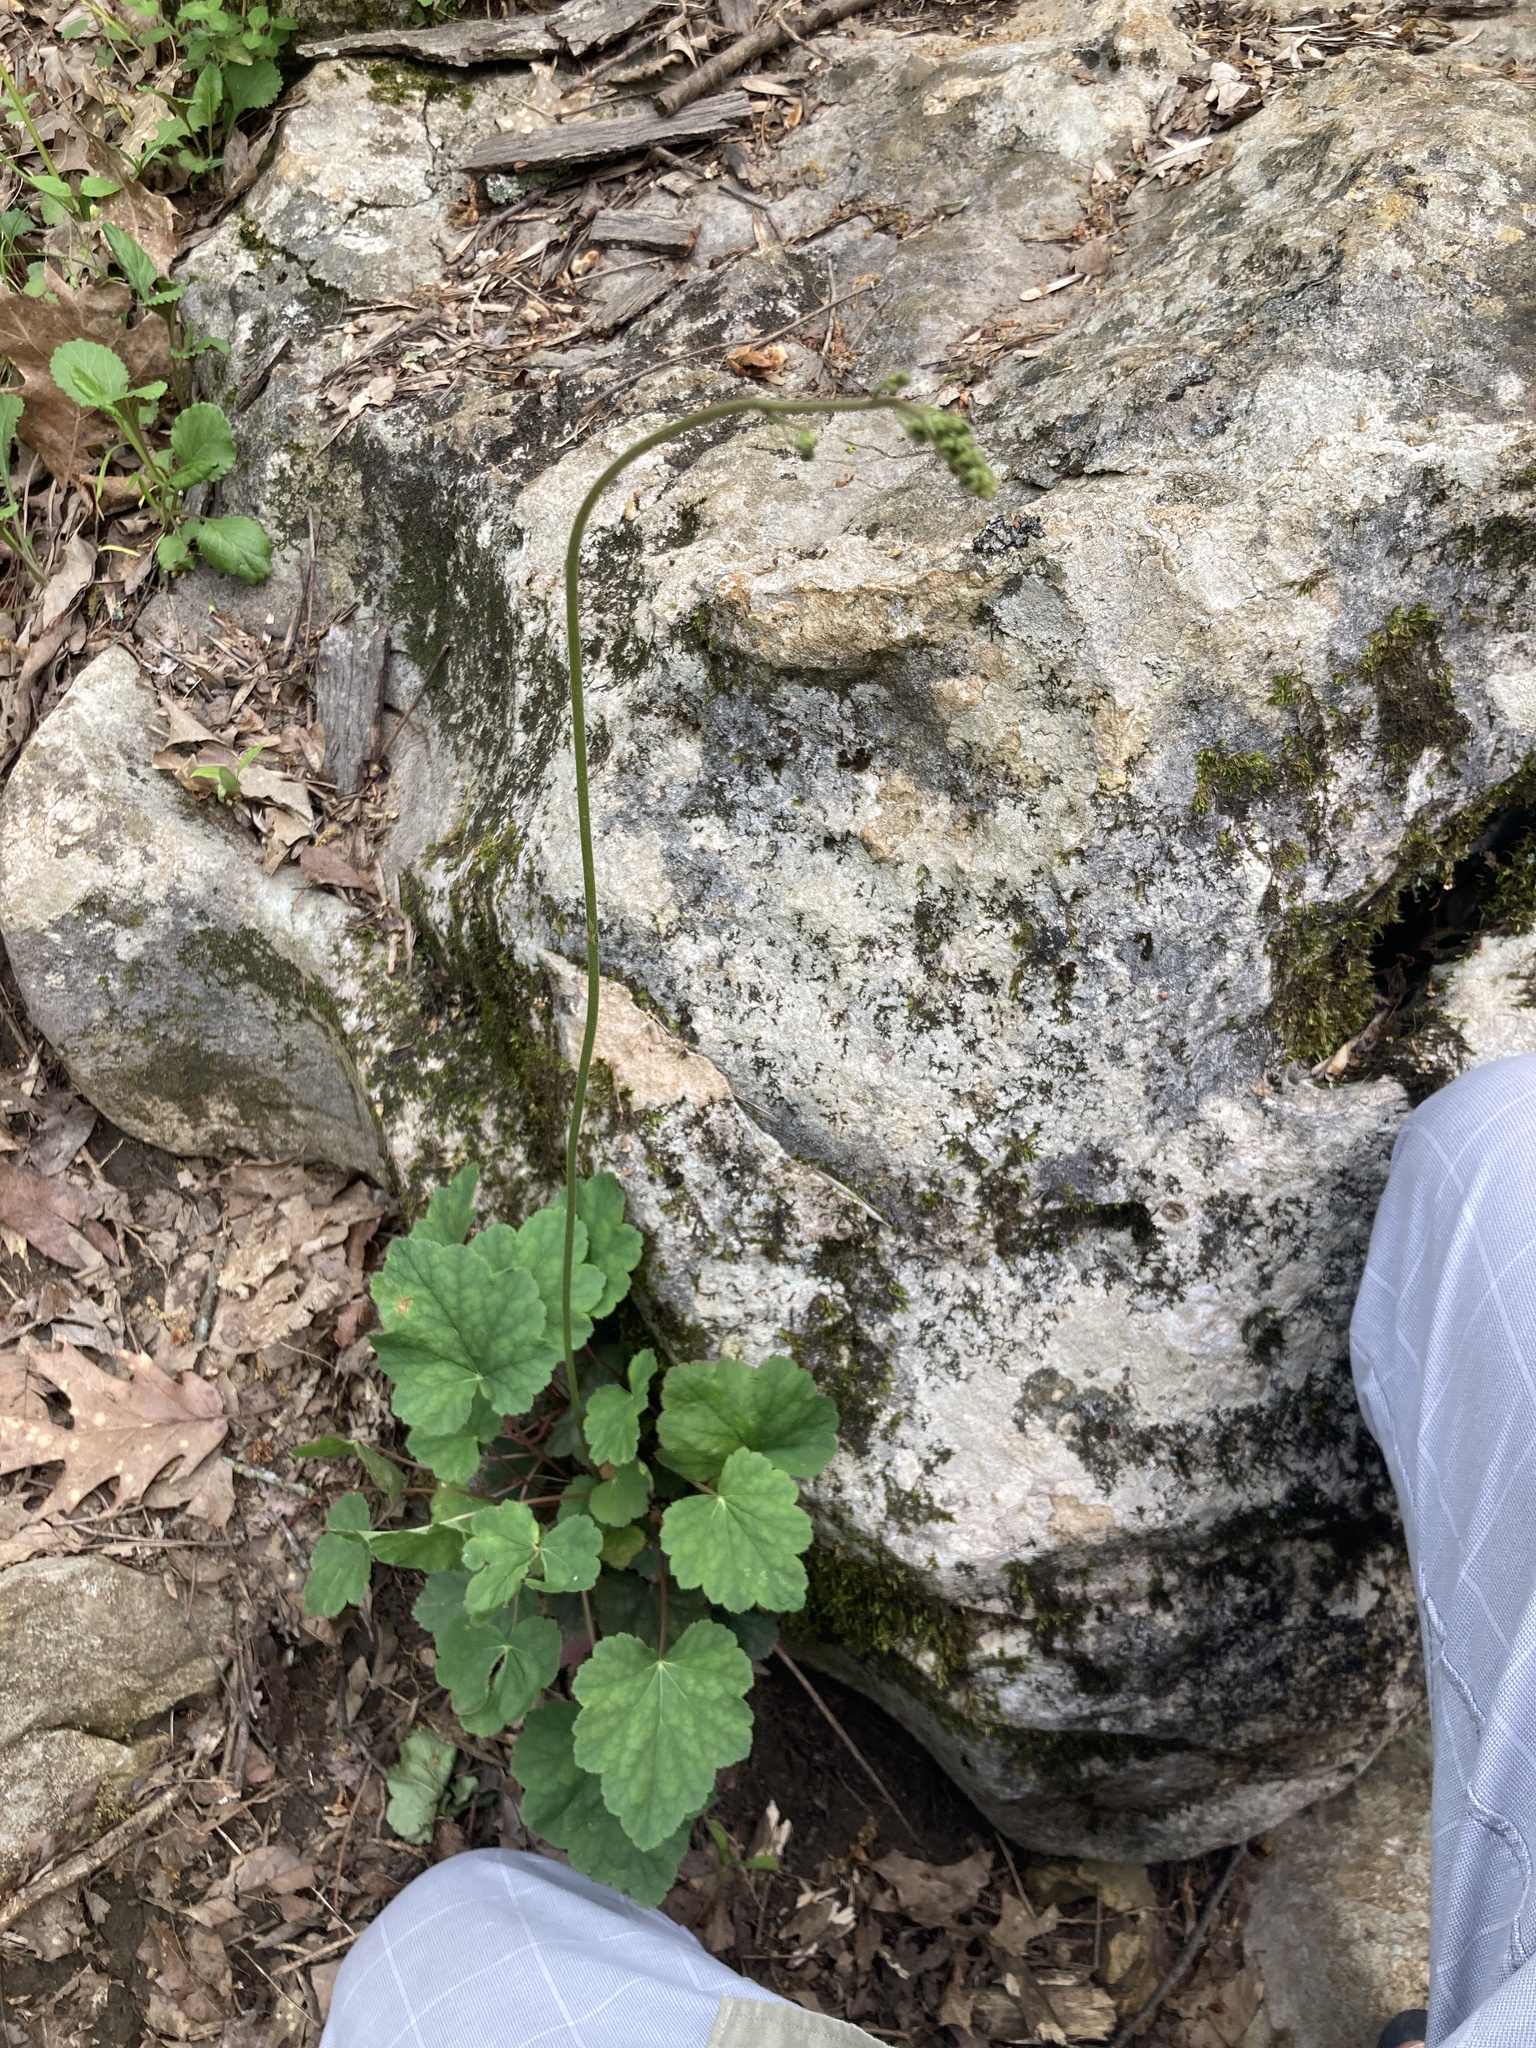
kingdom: Plantae
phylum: Tracheophyta
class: Magnoliopsida
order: Saxifragales
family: Saxifragaceae
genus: Heuchera
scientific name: Heuchera americana
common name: Alumroot
